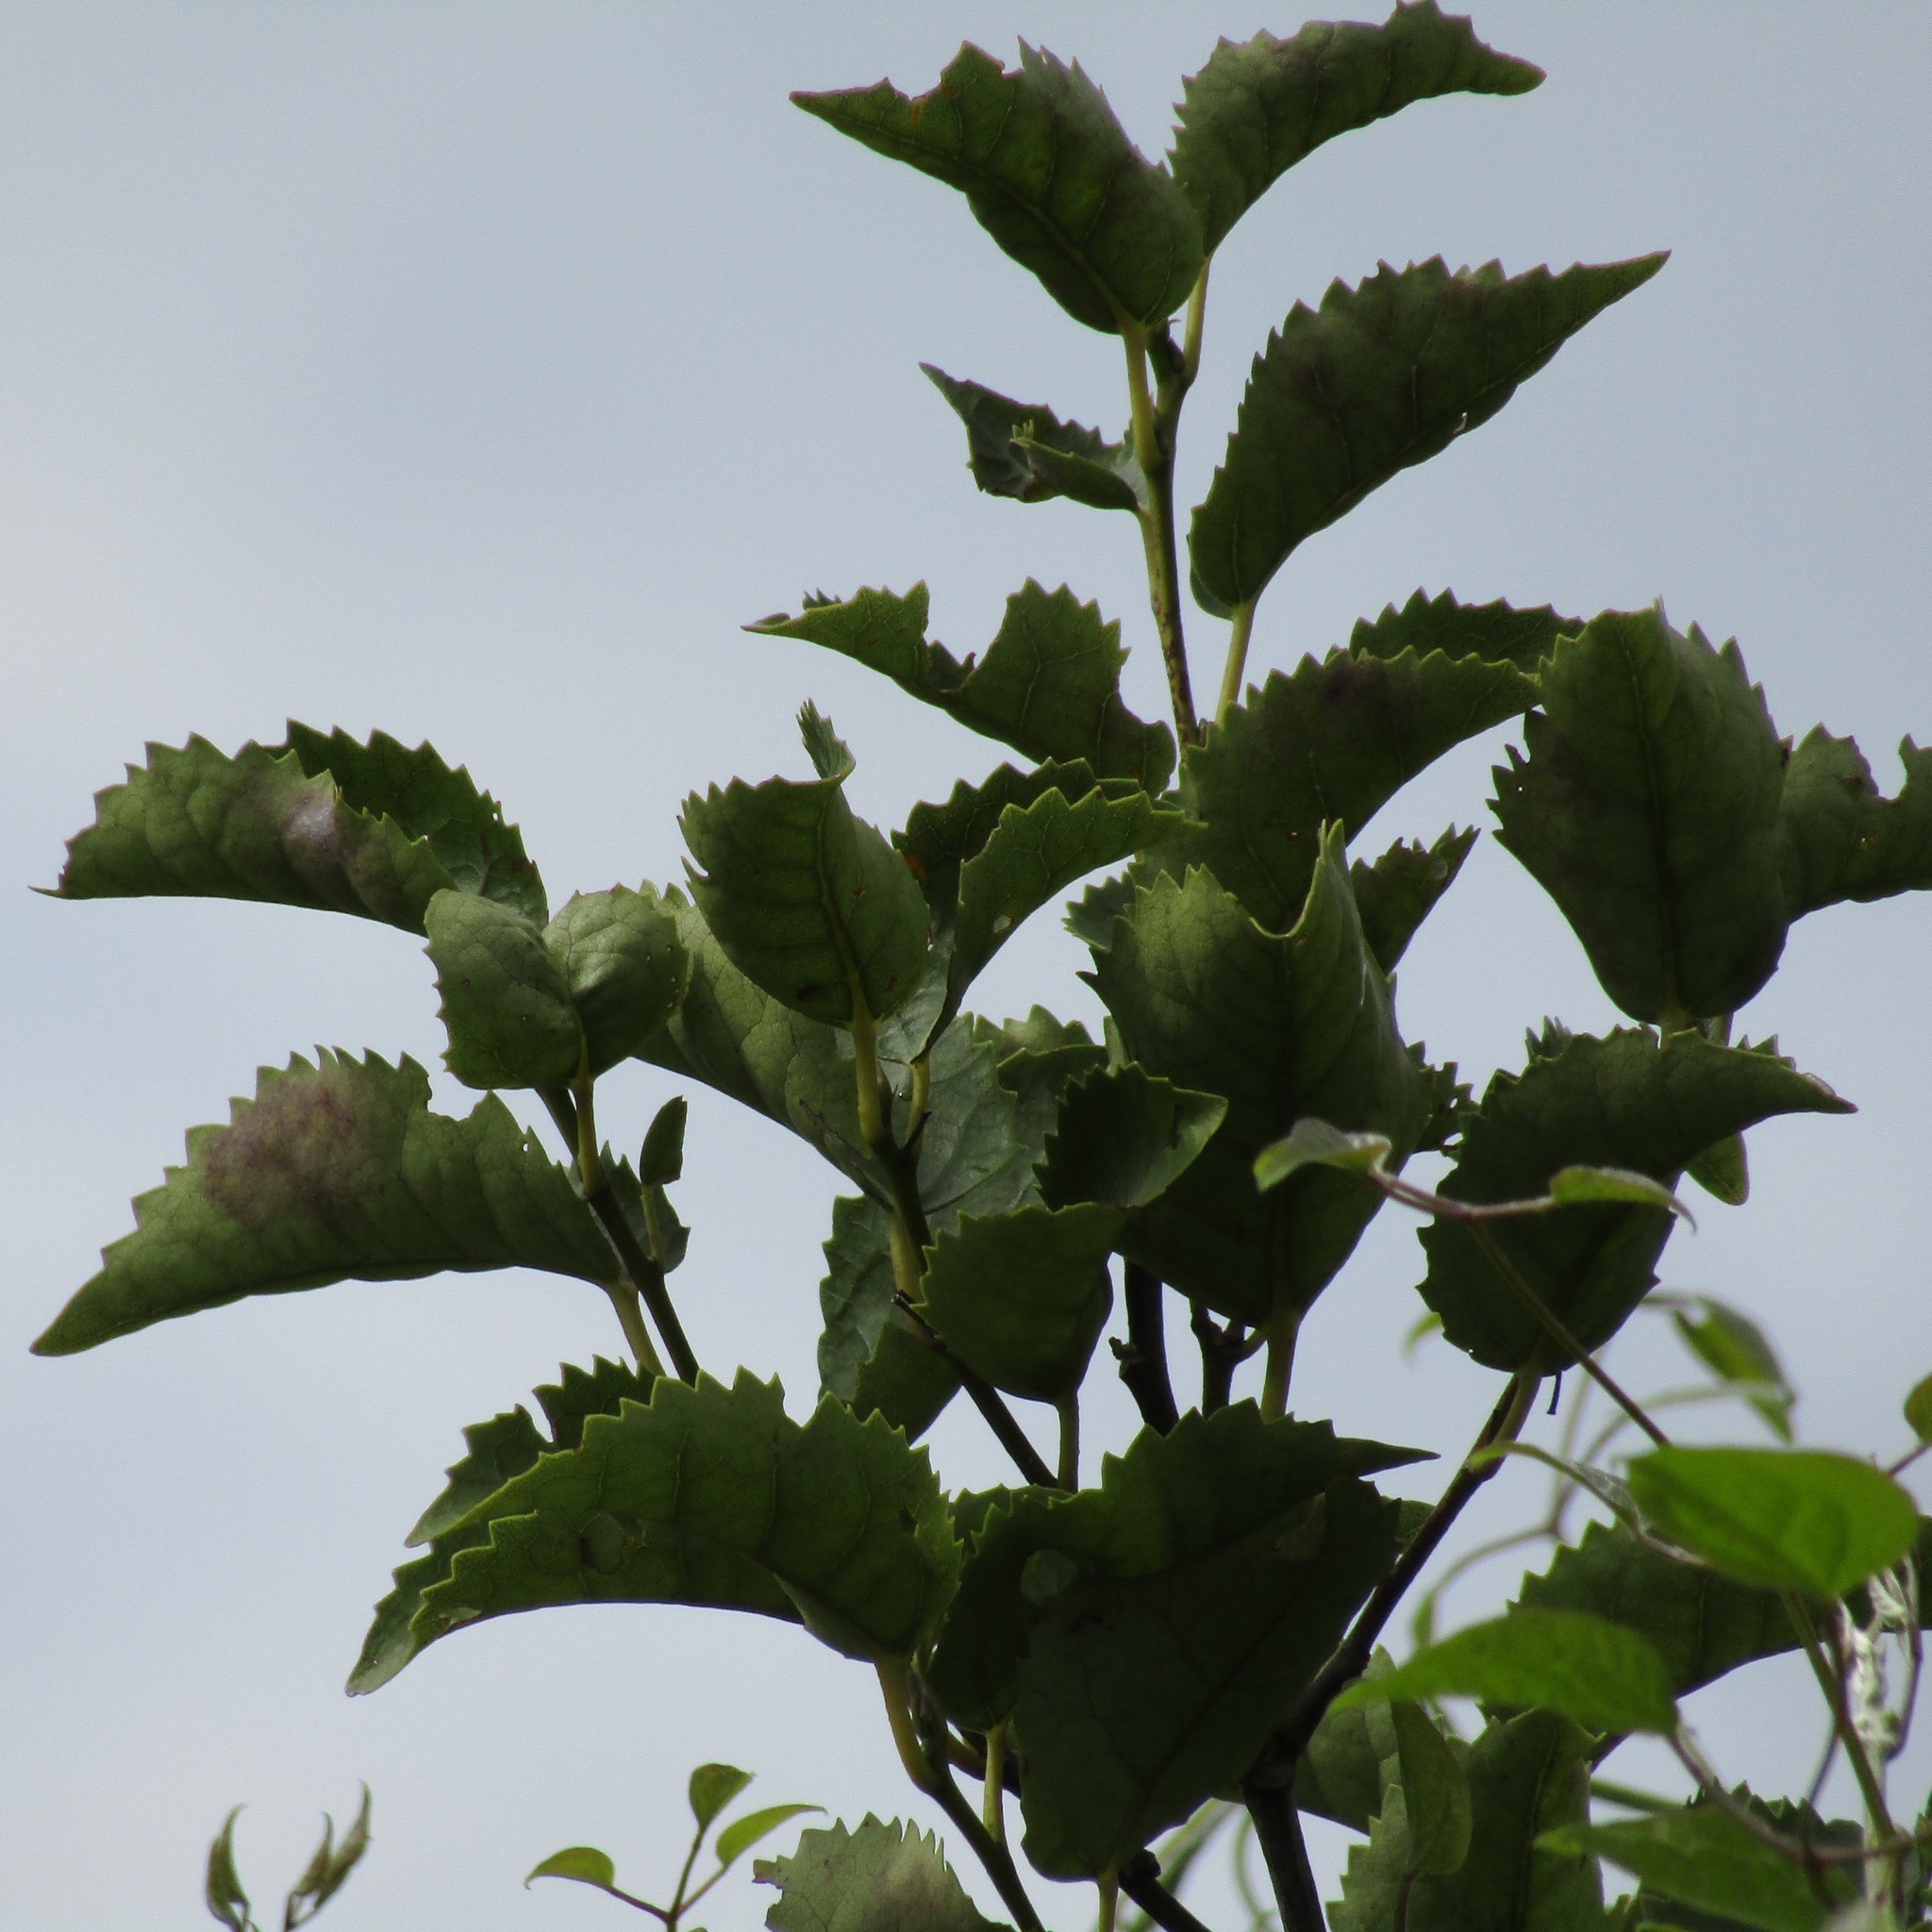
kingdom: Plantae
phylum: Tracheophyta
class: Magnoliopsida
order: Malvales
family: Malvaceae
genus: Hoheria
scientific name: Hoheria populnea
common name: Lacebark
